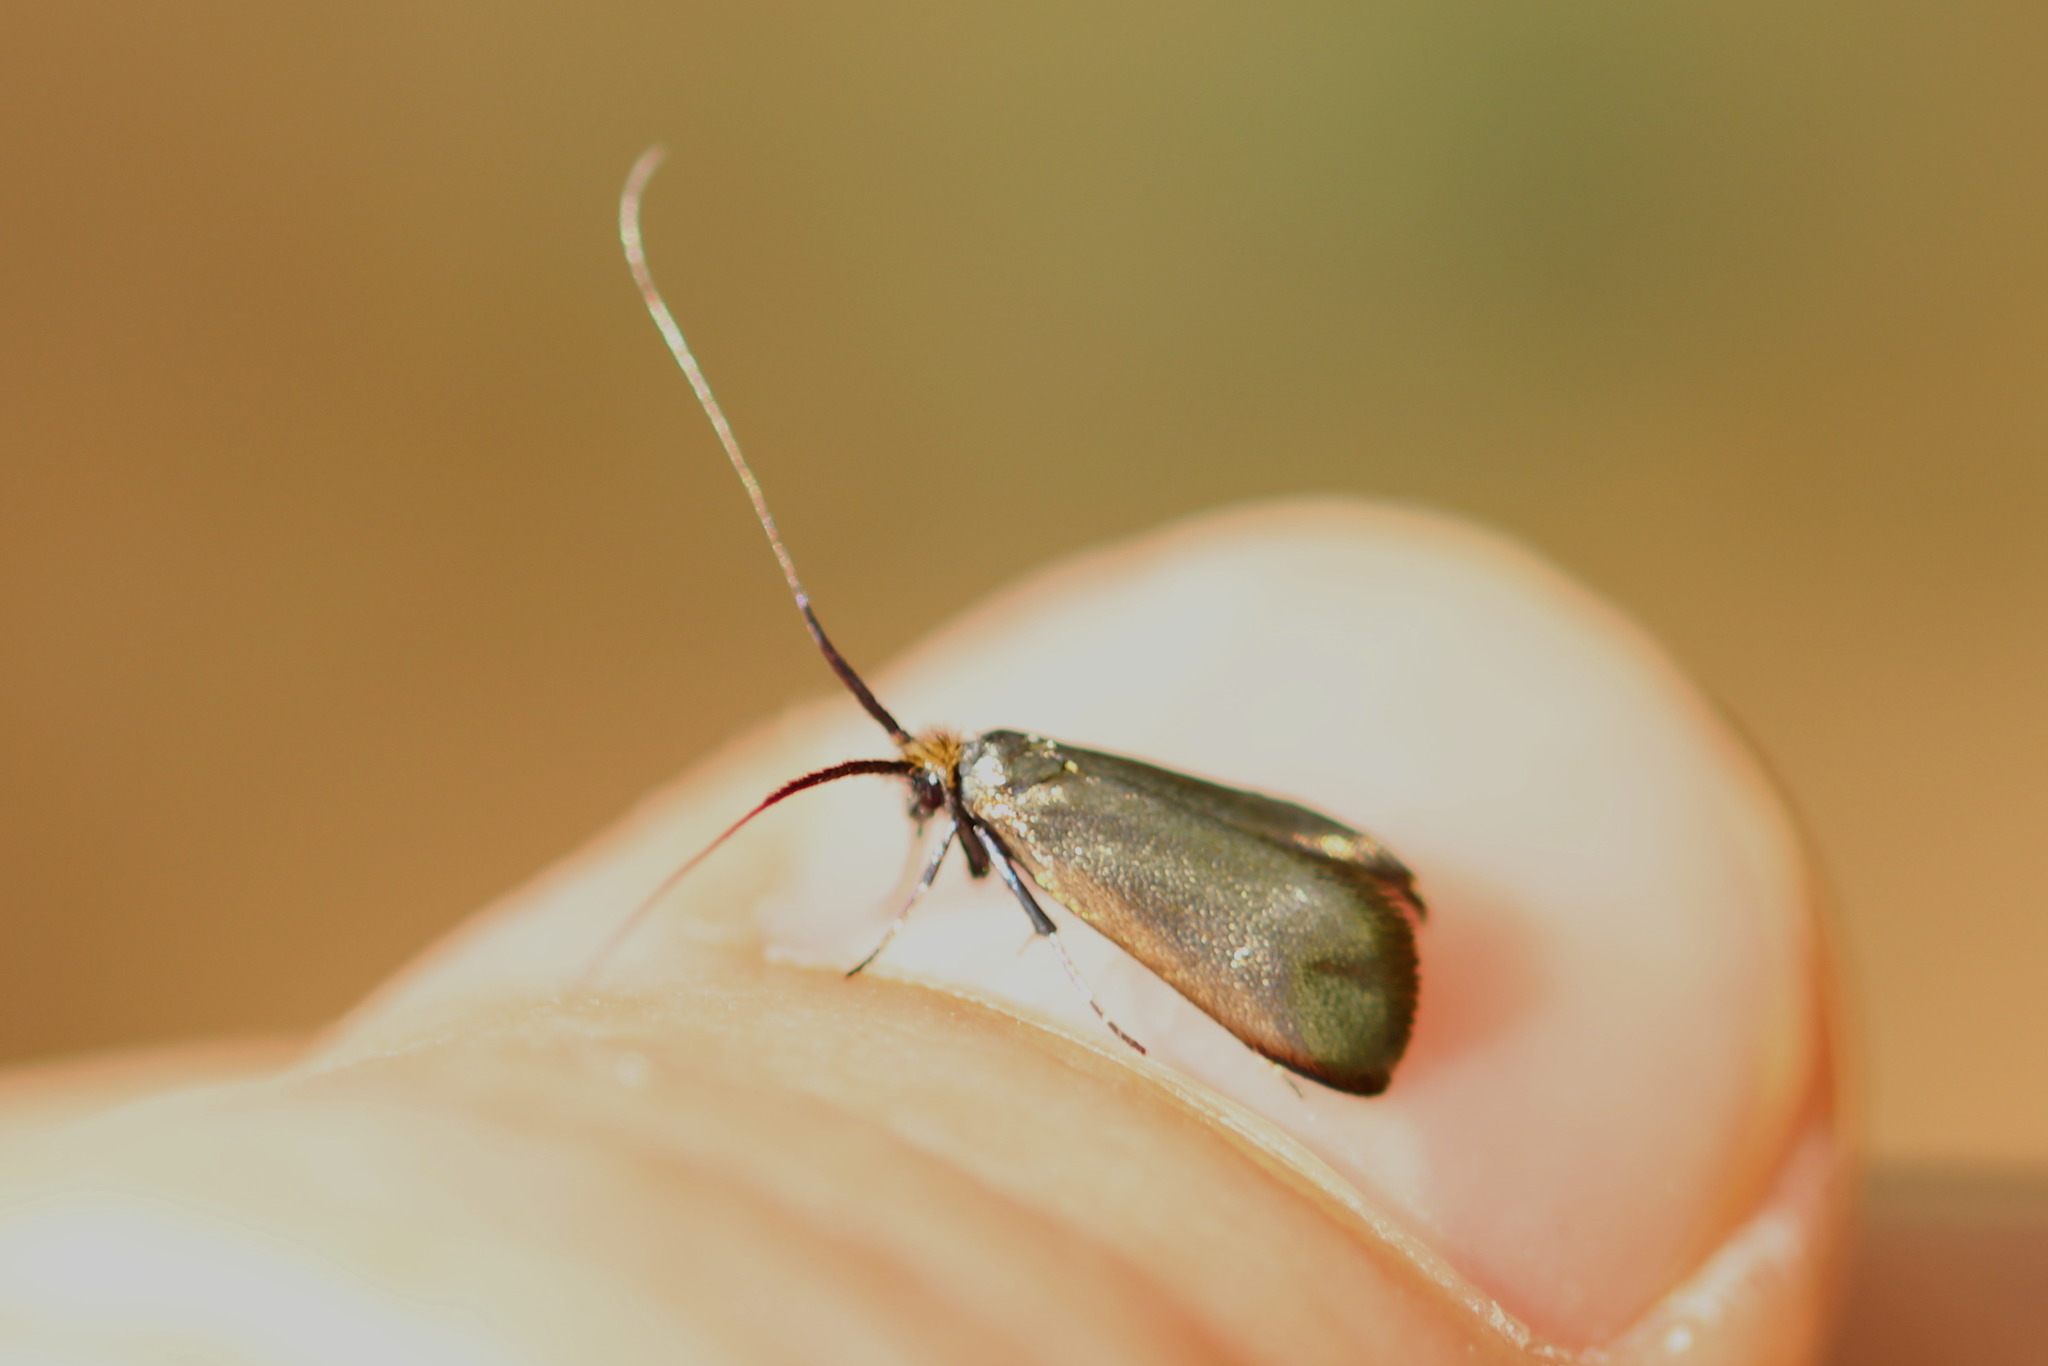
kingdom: Animalia
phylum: Arthropoda
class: Insecta
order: Lepidoptera
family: Adelidae
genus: Adela
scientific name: Adela viridella
